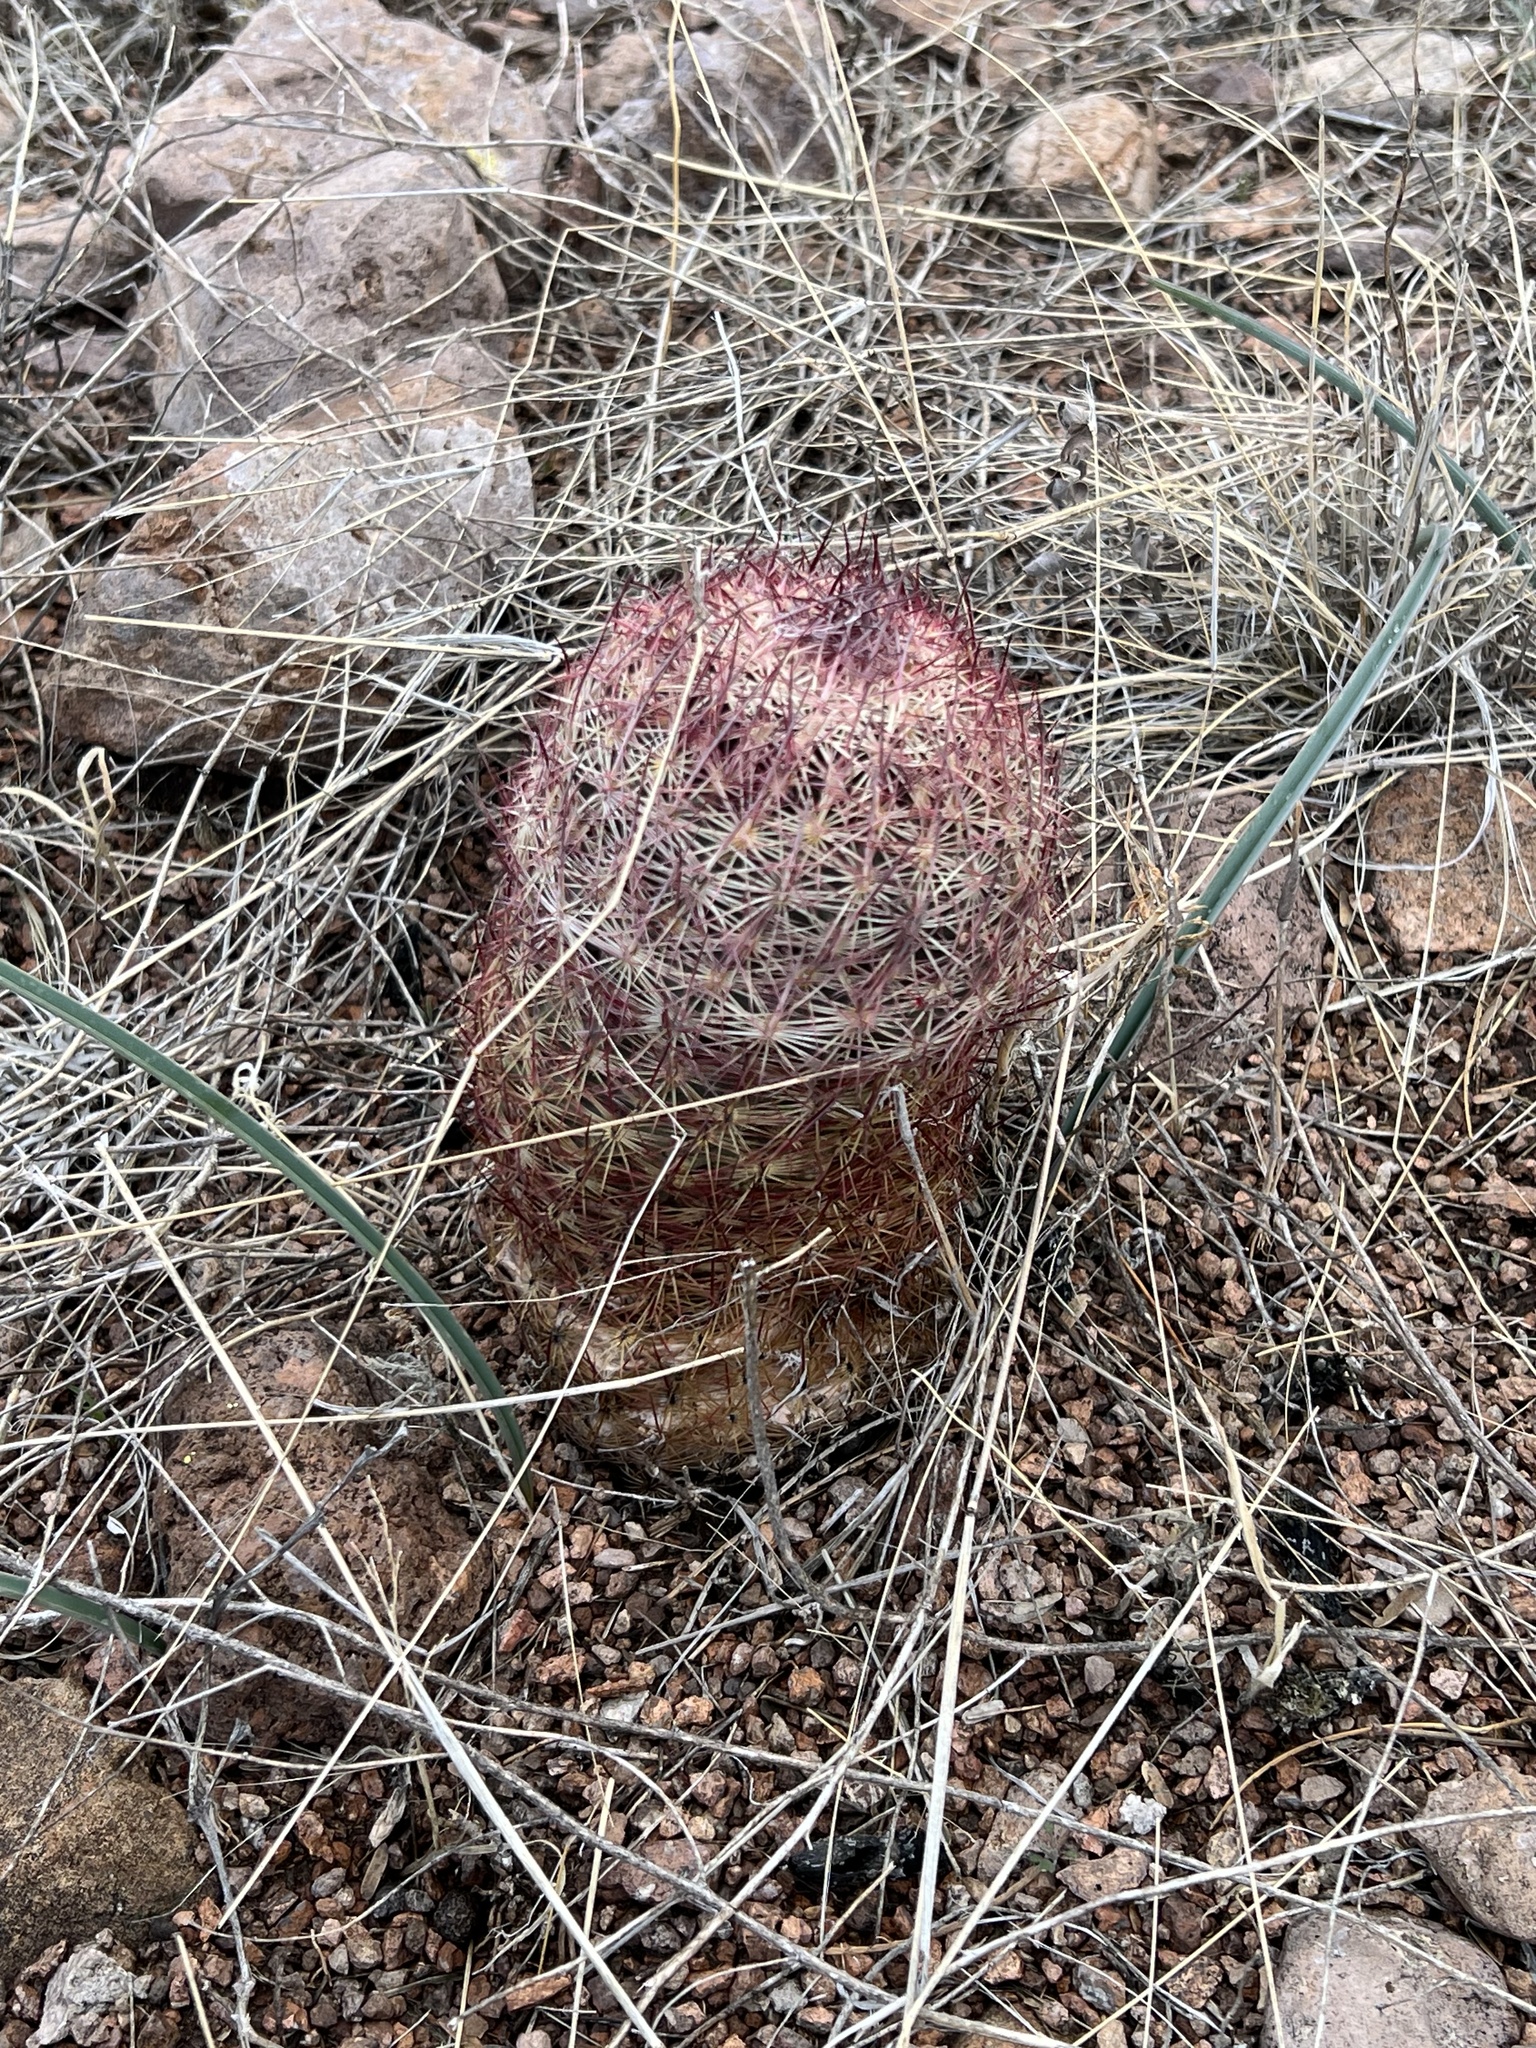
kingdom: Plantae
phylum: Tracheophyta
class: Magnoliopsida
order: Caryophyllales
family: Cactaceae
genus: Sclerocactus
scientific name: Sclerocactus johnsonii
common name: Eight-spine fishhook cactus
